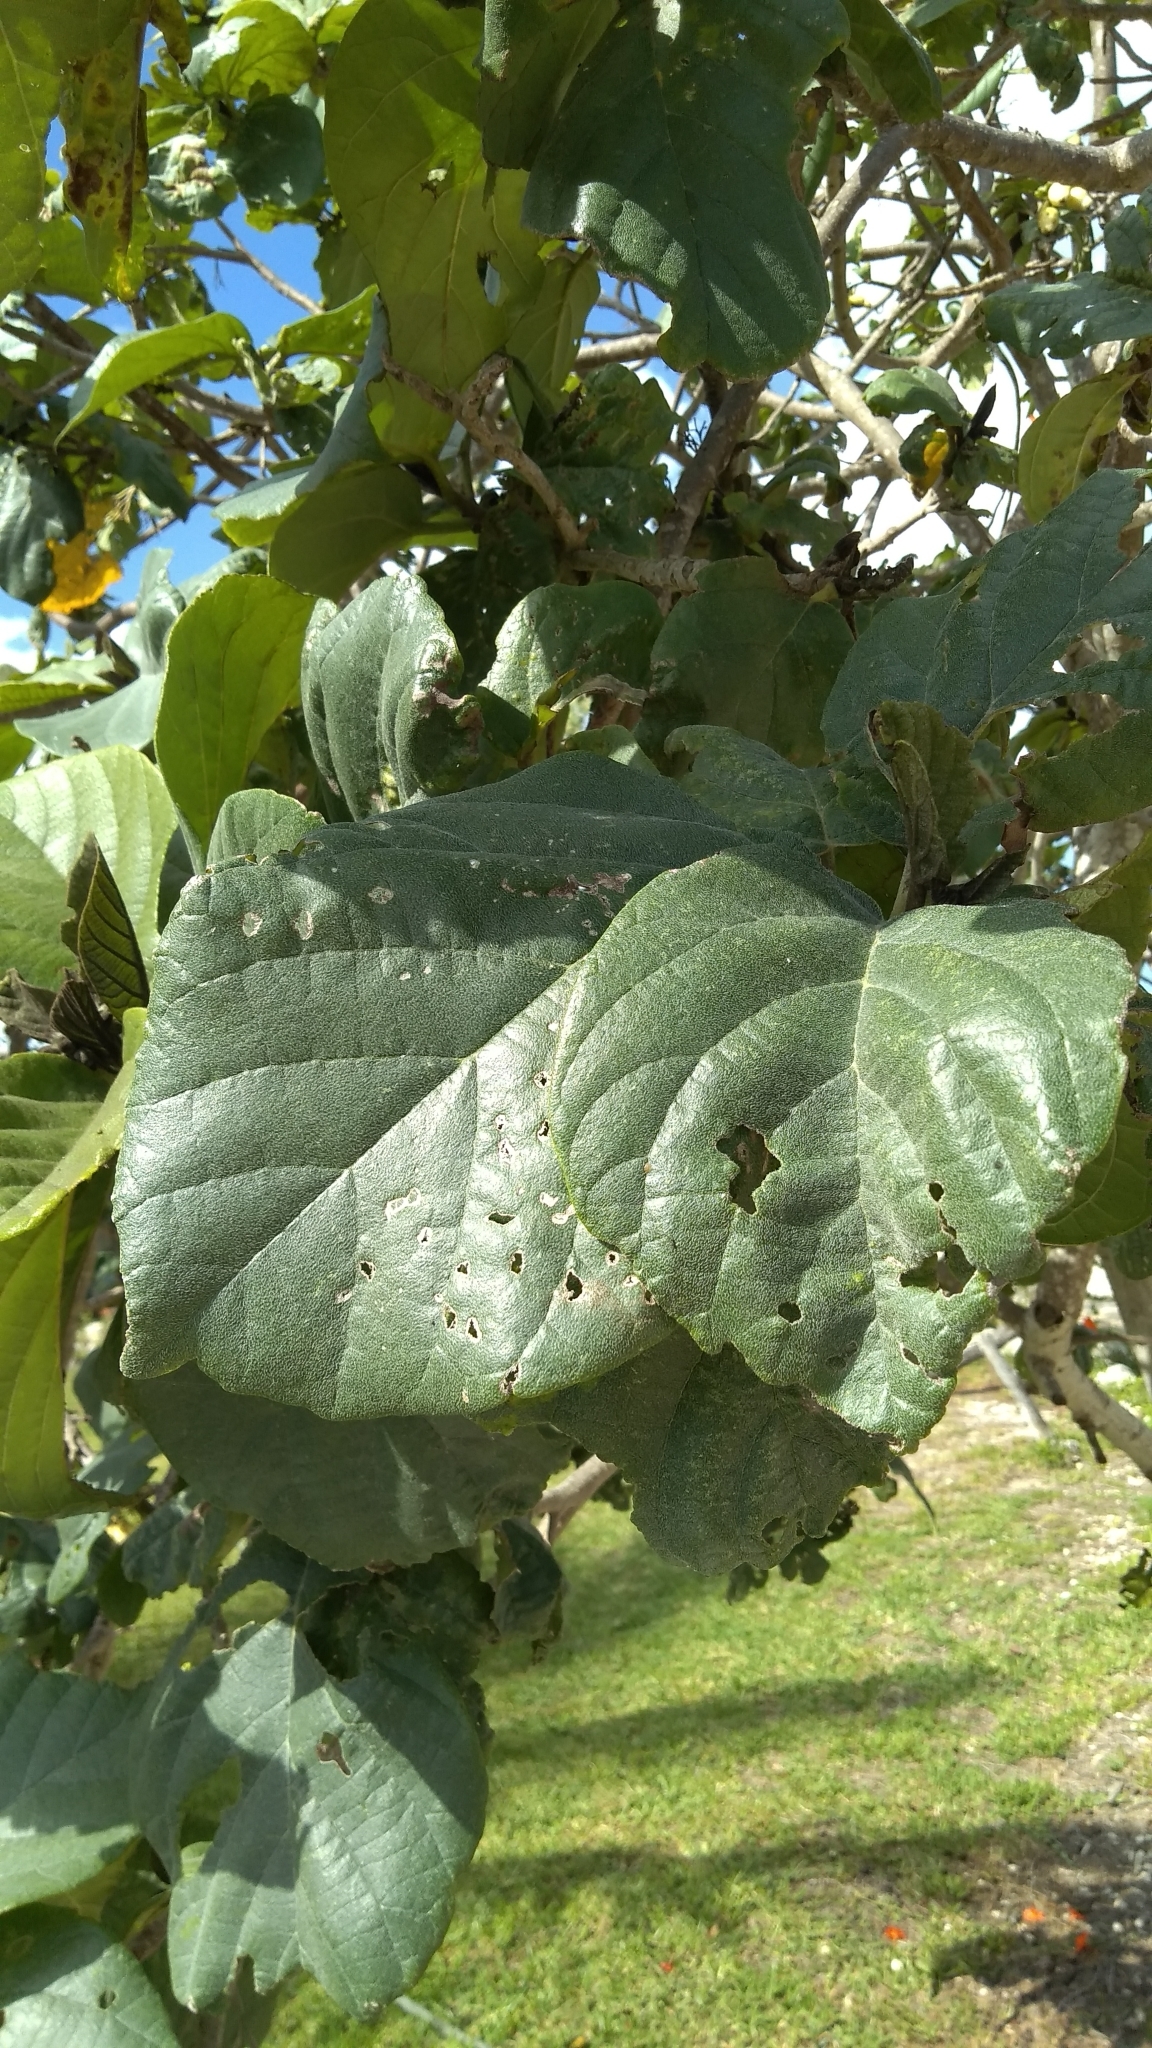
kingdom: Plantae
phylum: Tracheophyta
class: Magnoliopsida
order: Boraginales
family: Cordiaceae
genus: Cordia
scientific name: Cordia sebestena
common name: Largeleaf geigertree
